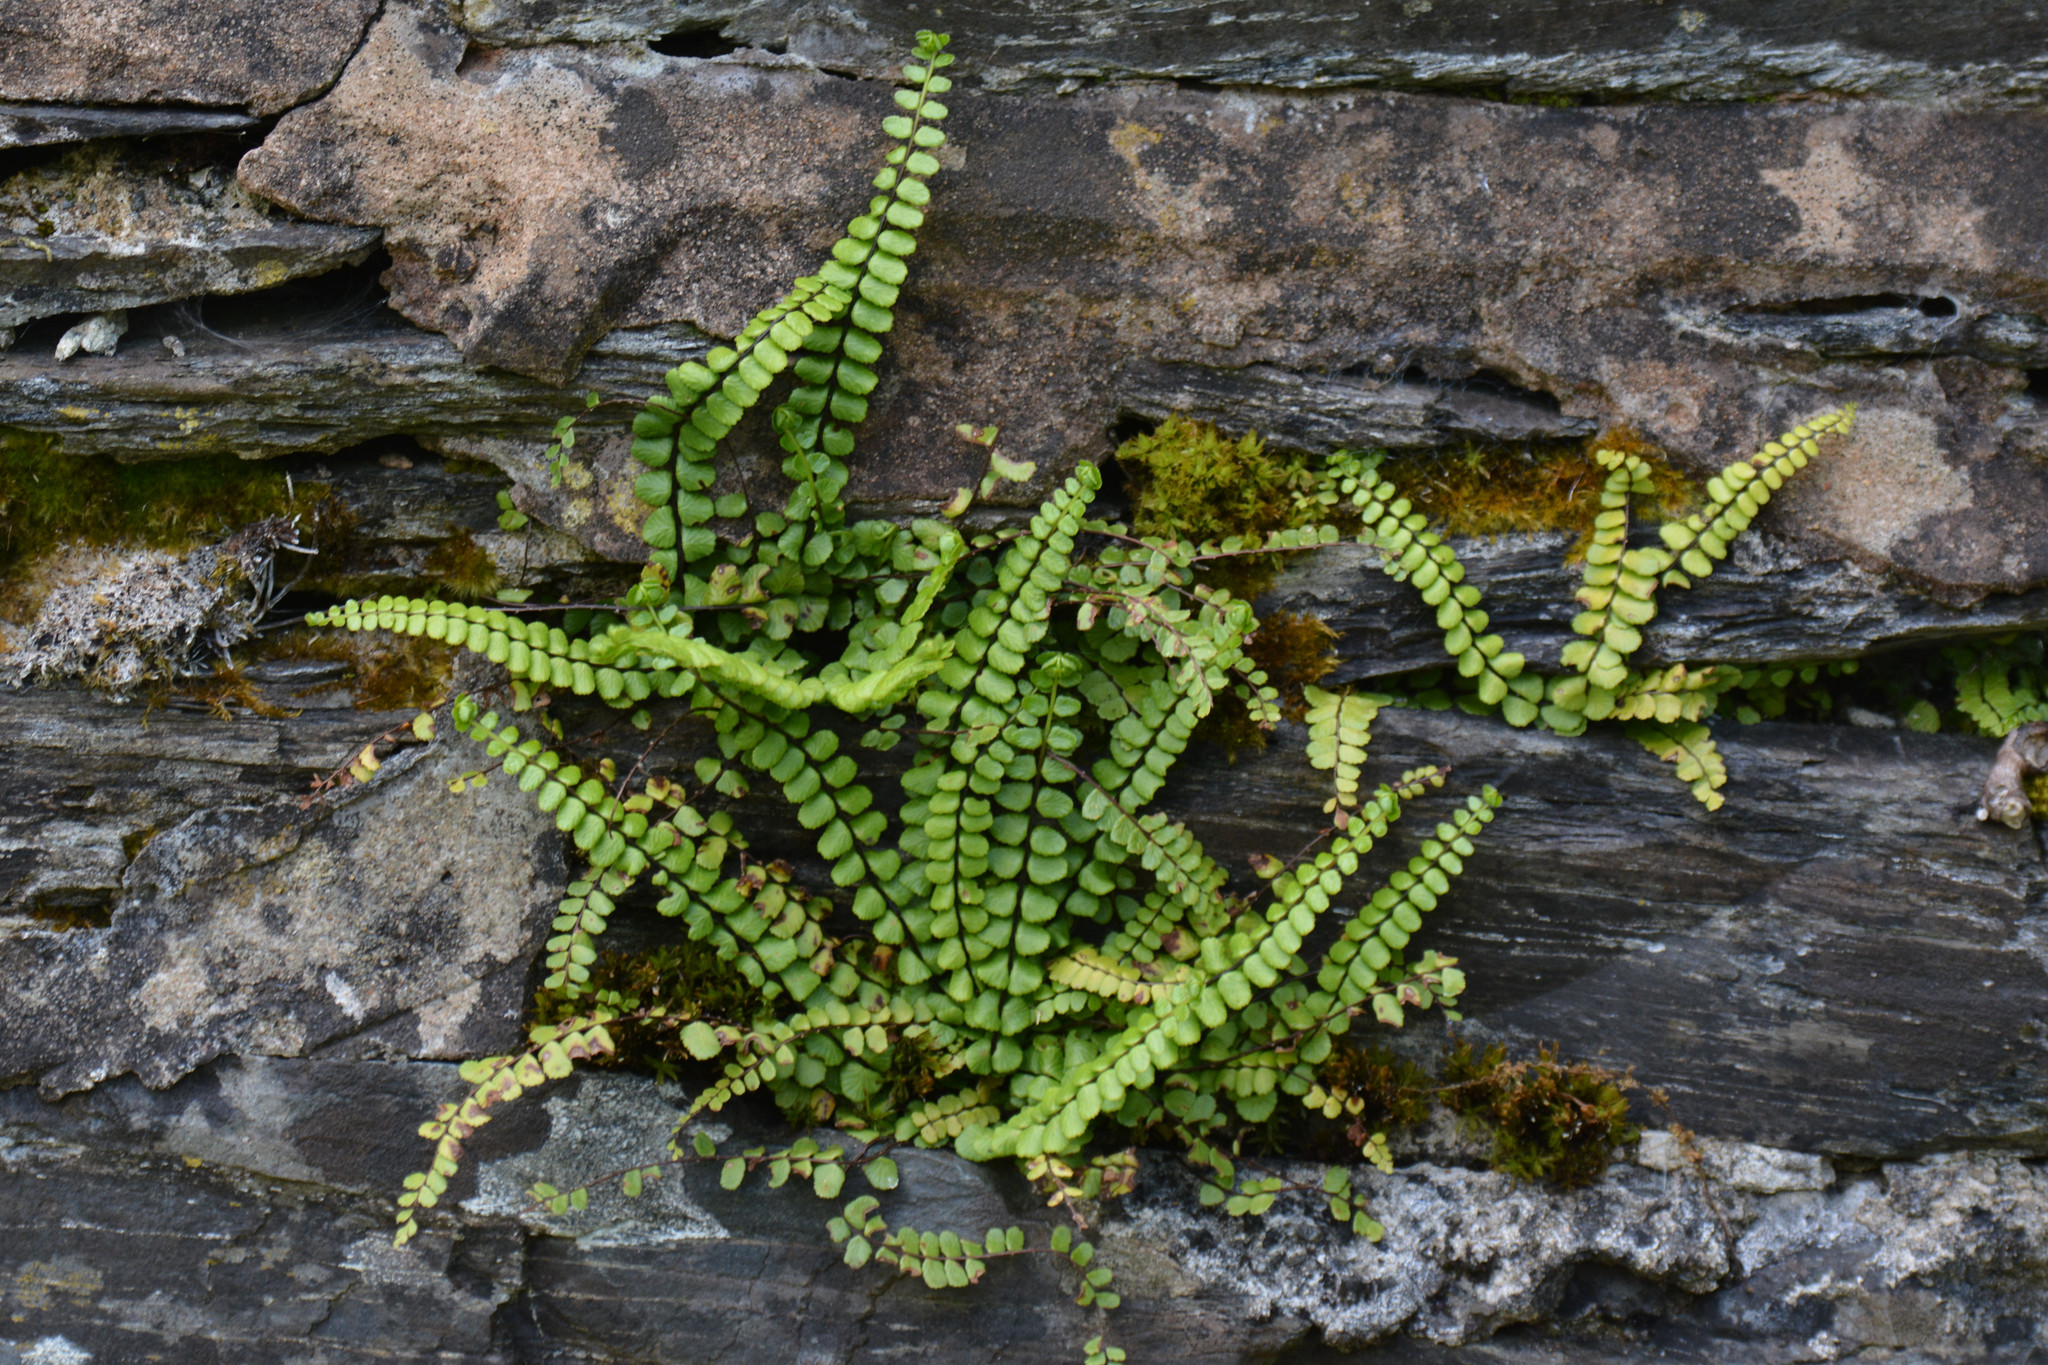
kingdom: Plantae
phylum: Tracheophyta
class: Polypodiopsida
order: Polypodiales
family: Aspleniaceae
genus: Asplenium
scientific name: Asplenium trichomanes
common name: Maidenhair spleenwort
